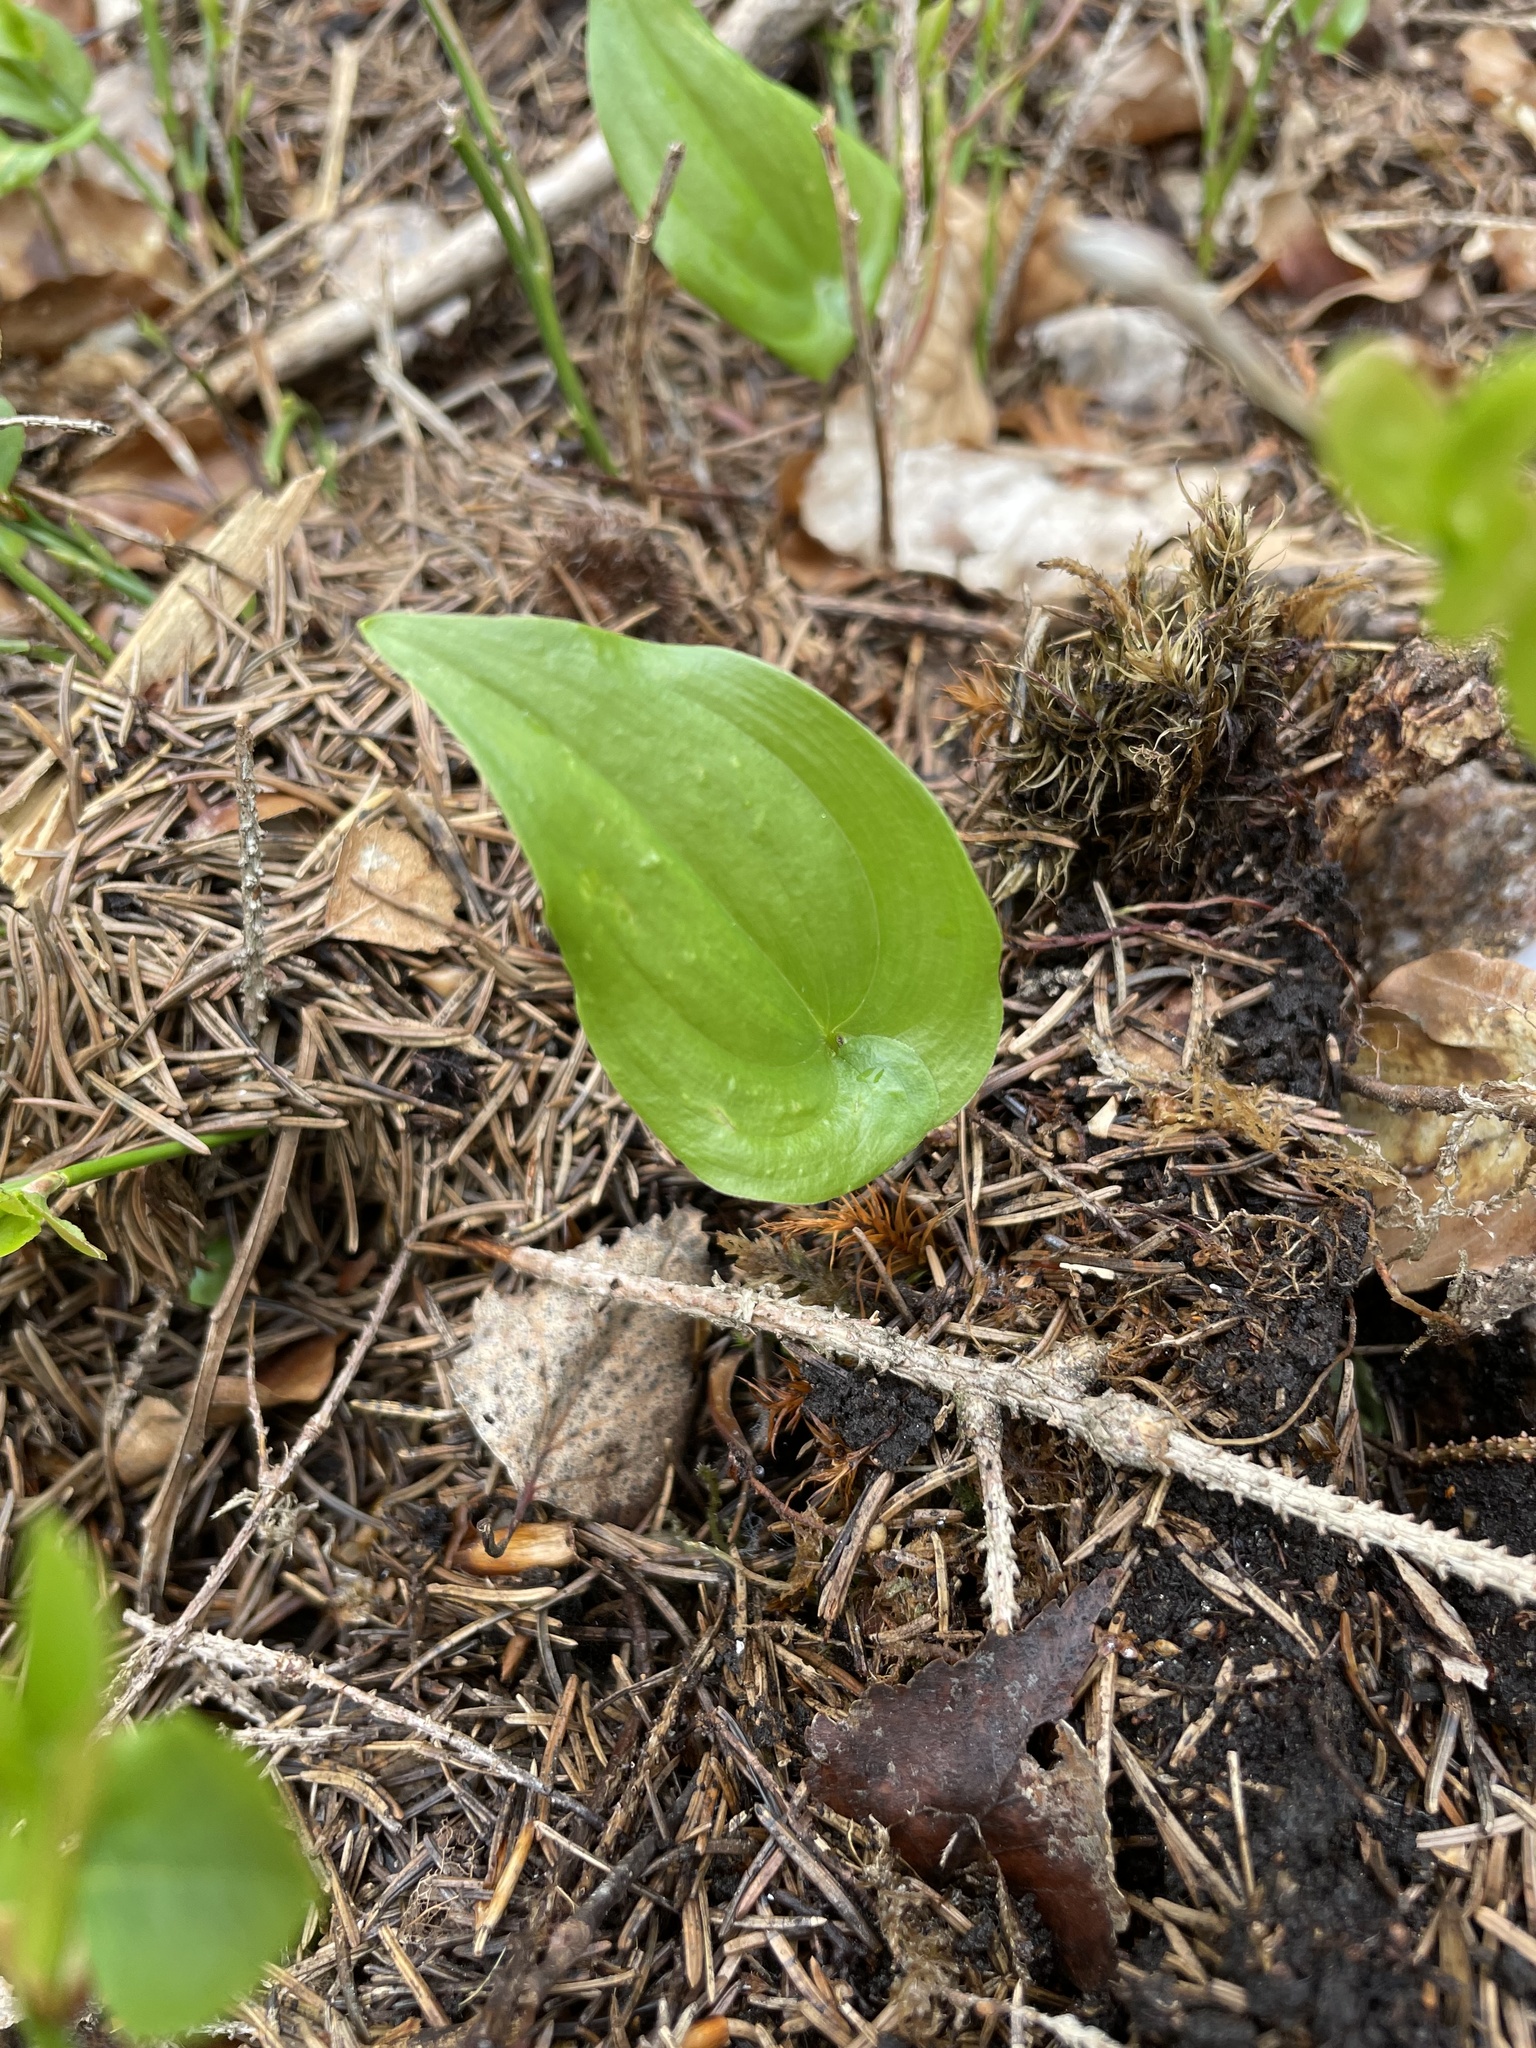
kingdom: Plantae
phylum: Tracheophyta
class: Liliopsida
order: Asparagales
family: Asparagaceae
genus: Maianthemum
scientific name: Maianthemum bifolium
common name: May lily
